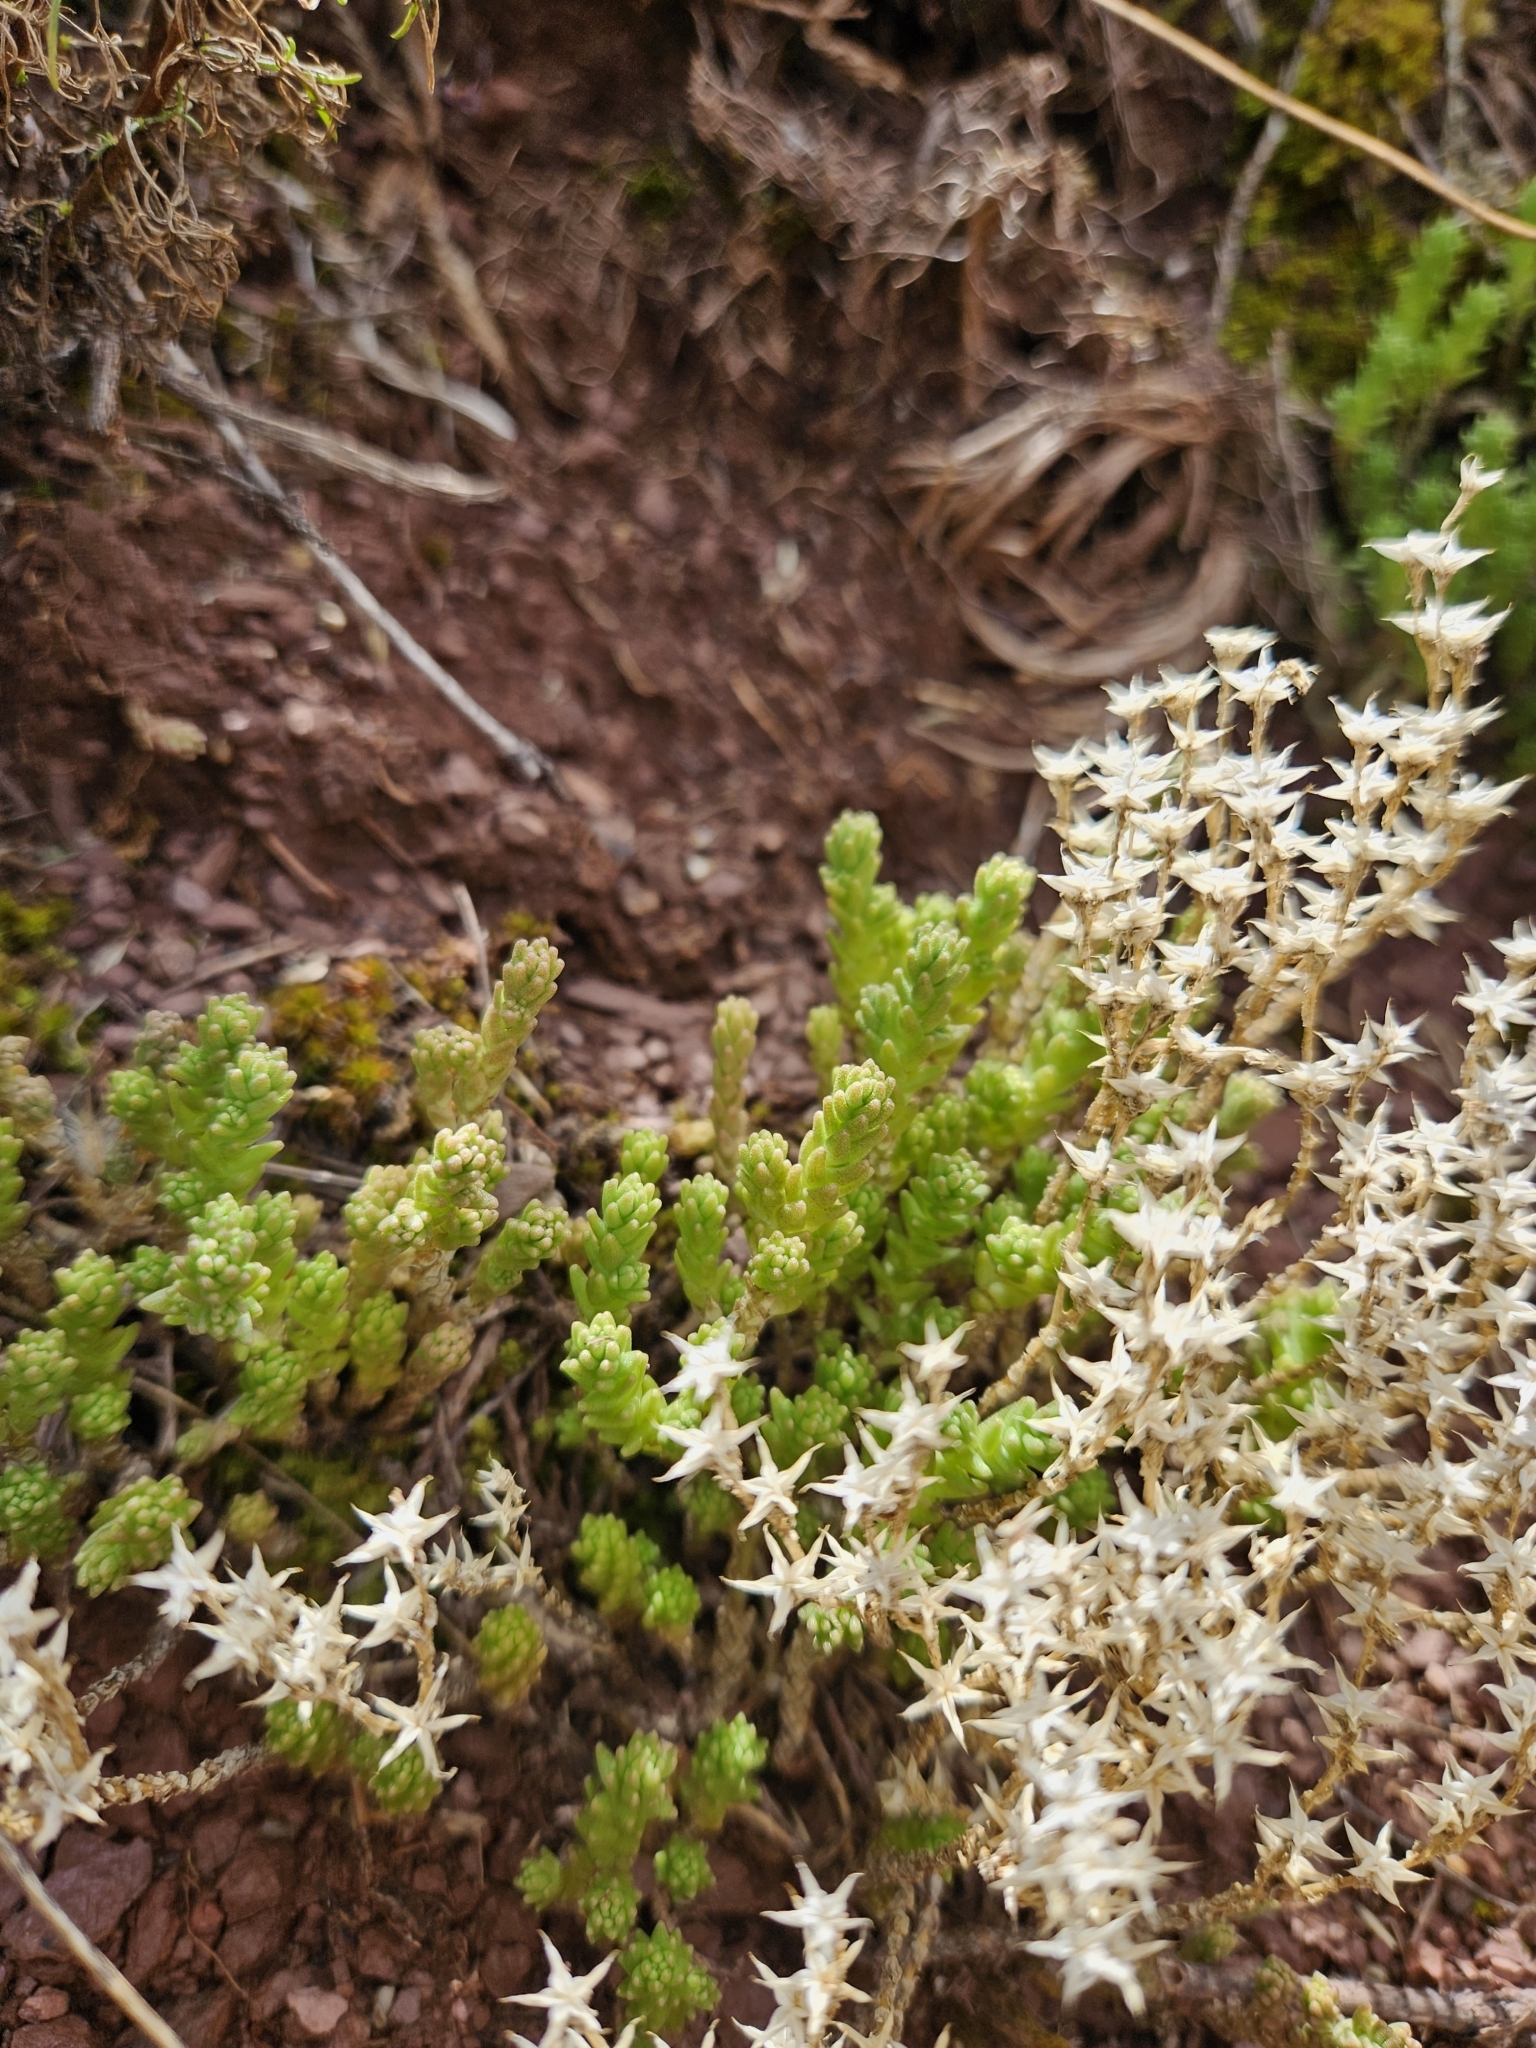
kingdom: Plantae
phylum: Tracheophyta
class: Magnoliopsida
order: Saxifragales
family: Crassulaceae
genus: Sedum
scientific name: Sedum acre
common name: Biting stonecrop
